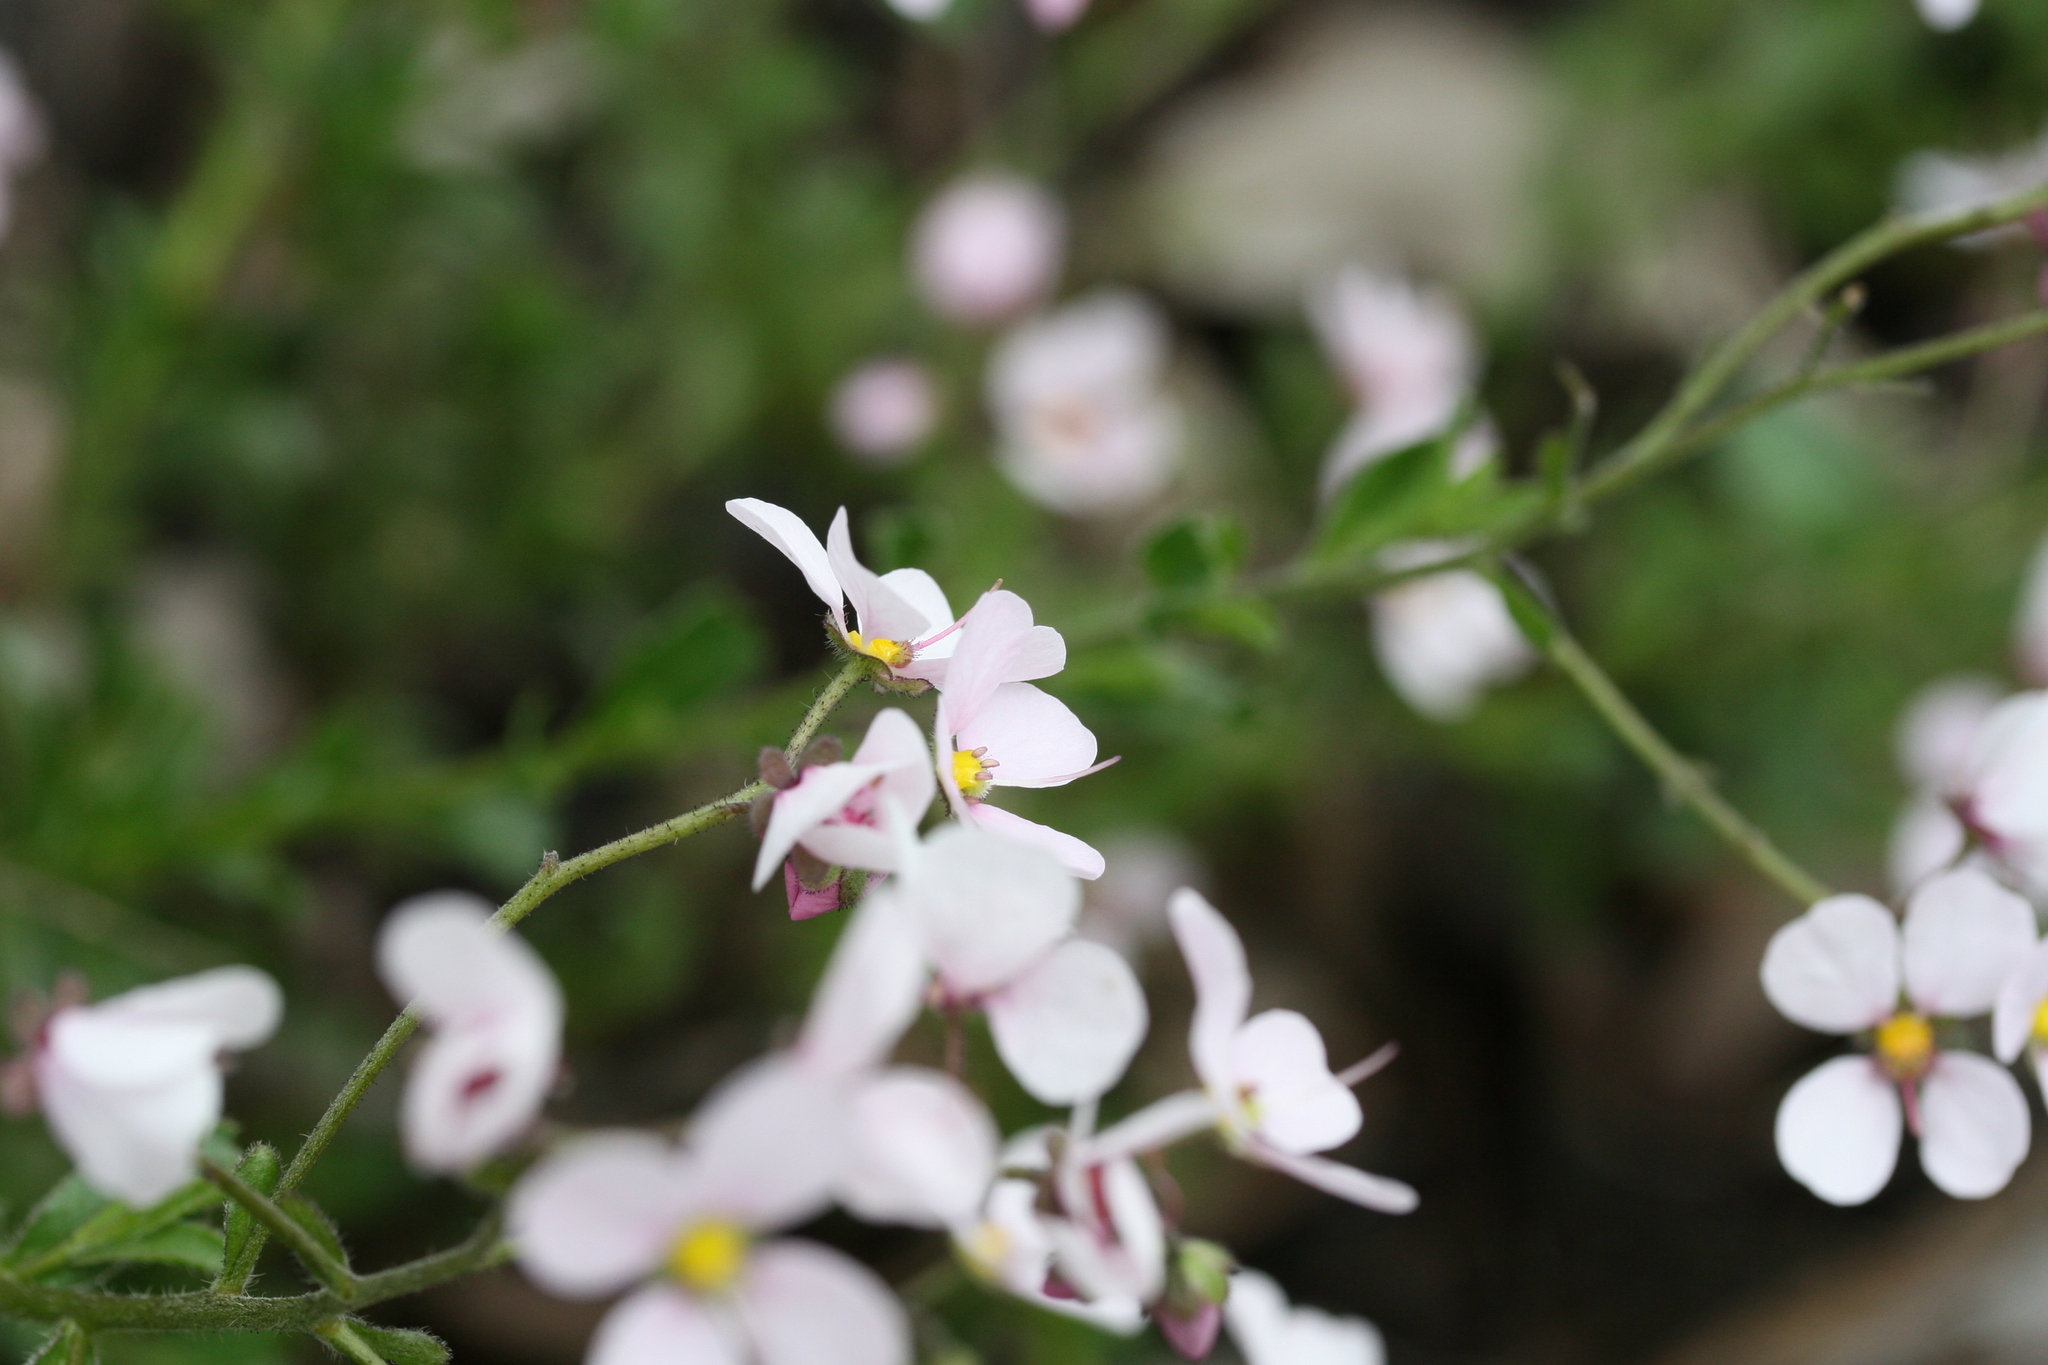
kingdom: Plantae
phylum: Tracheophyta
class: Magnoliopsida
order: Sapindales
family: Sapindaceae
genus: Diplopeltis
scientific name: Diplopeltis huegelii
